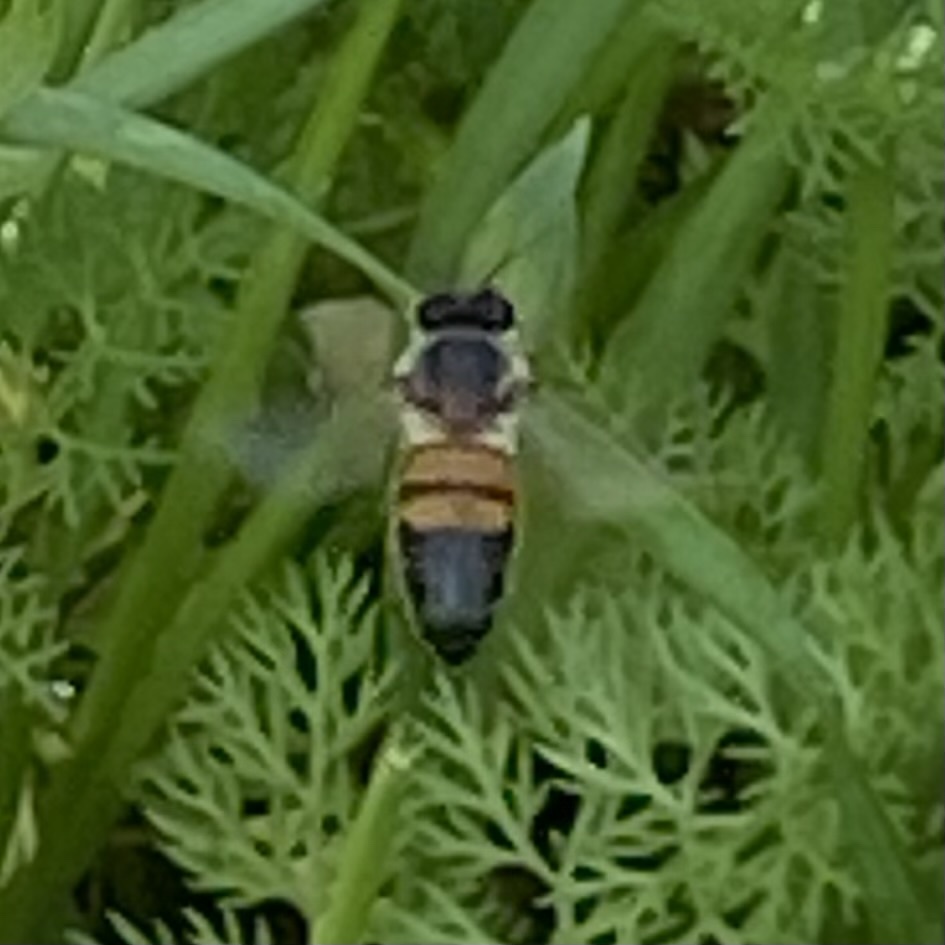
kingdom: Animalia
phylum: Arthropoda
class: Insecta
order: Hymenoptera
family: Apidae
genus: Apis
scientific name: Apis mellifera
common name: Honey bee
